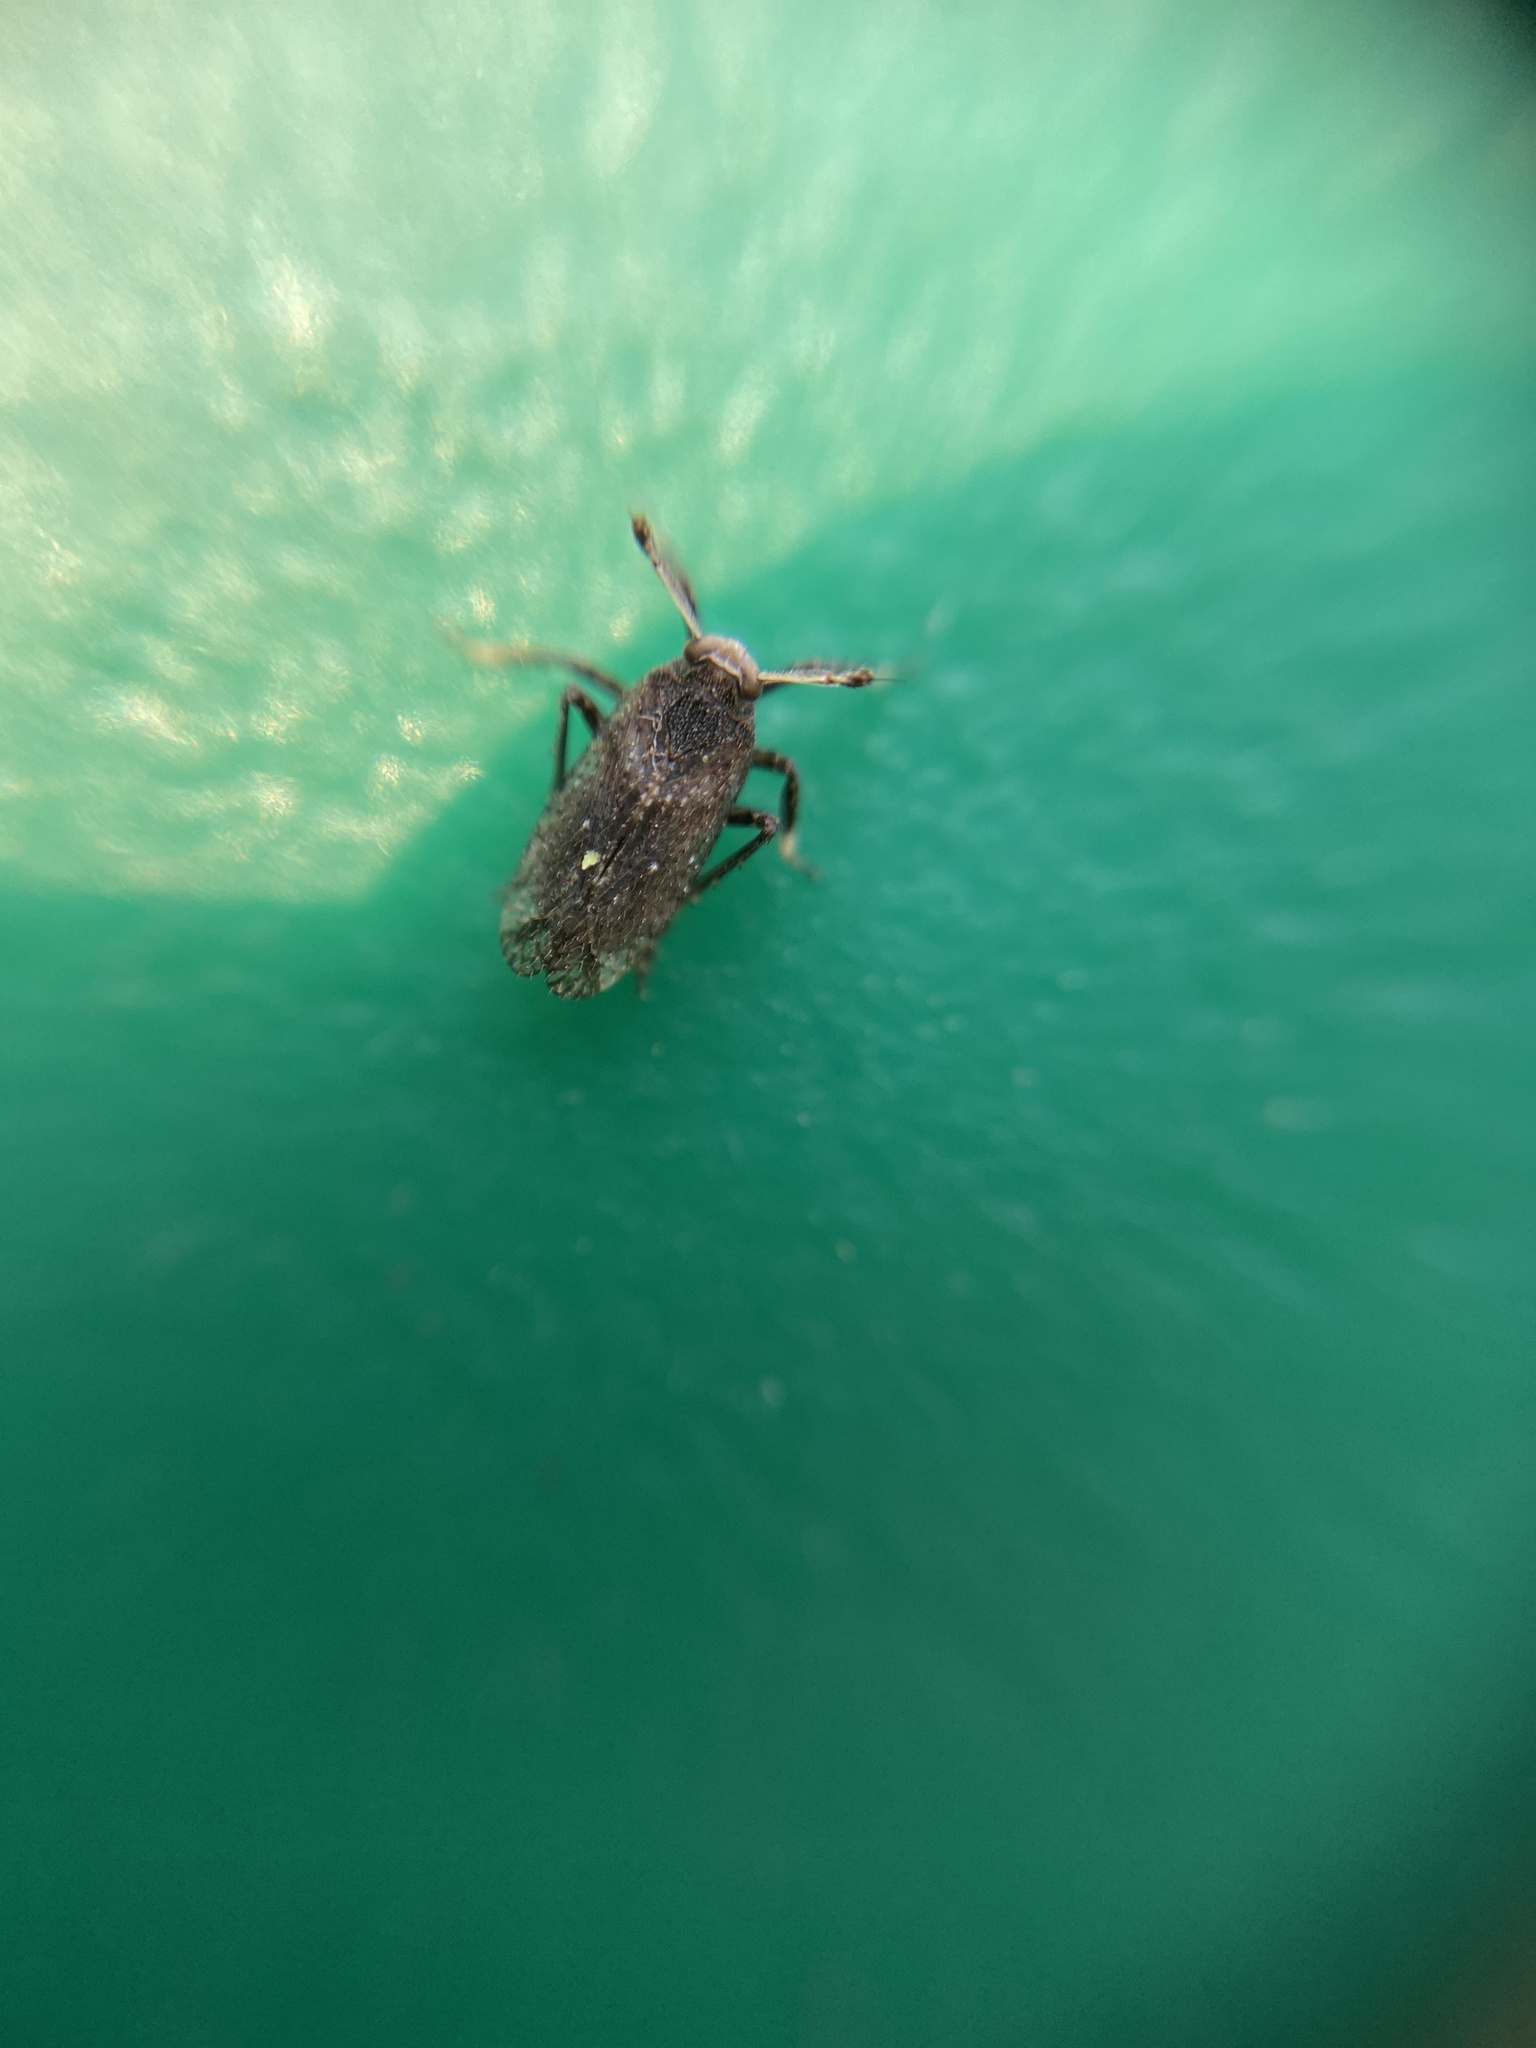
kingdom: Animalia
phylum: Arthropoda
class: Insecta
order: Hemiptera
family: Delphacidae
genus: Asiraca
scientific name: Asiraca clavicornis
